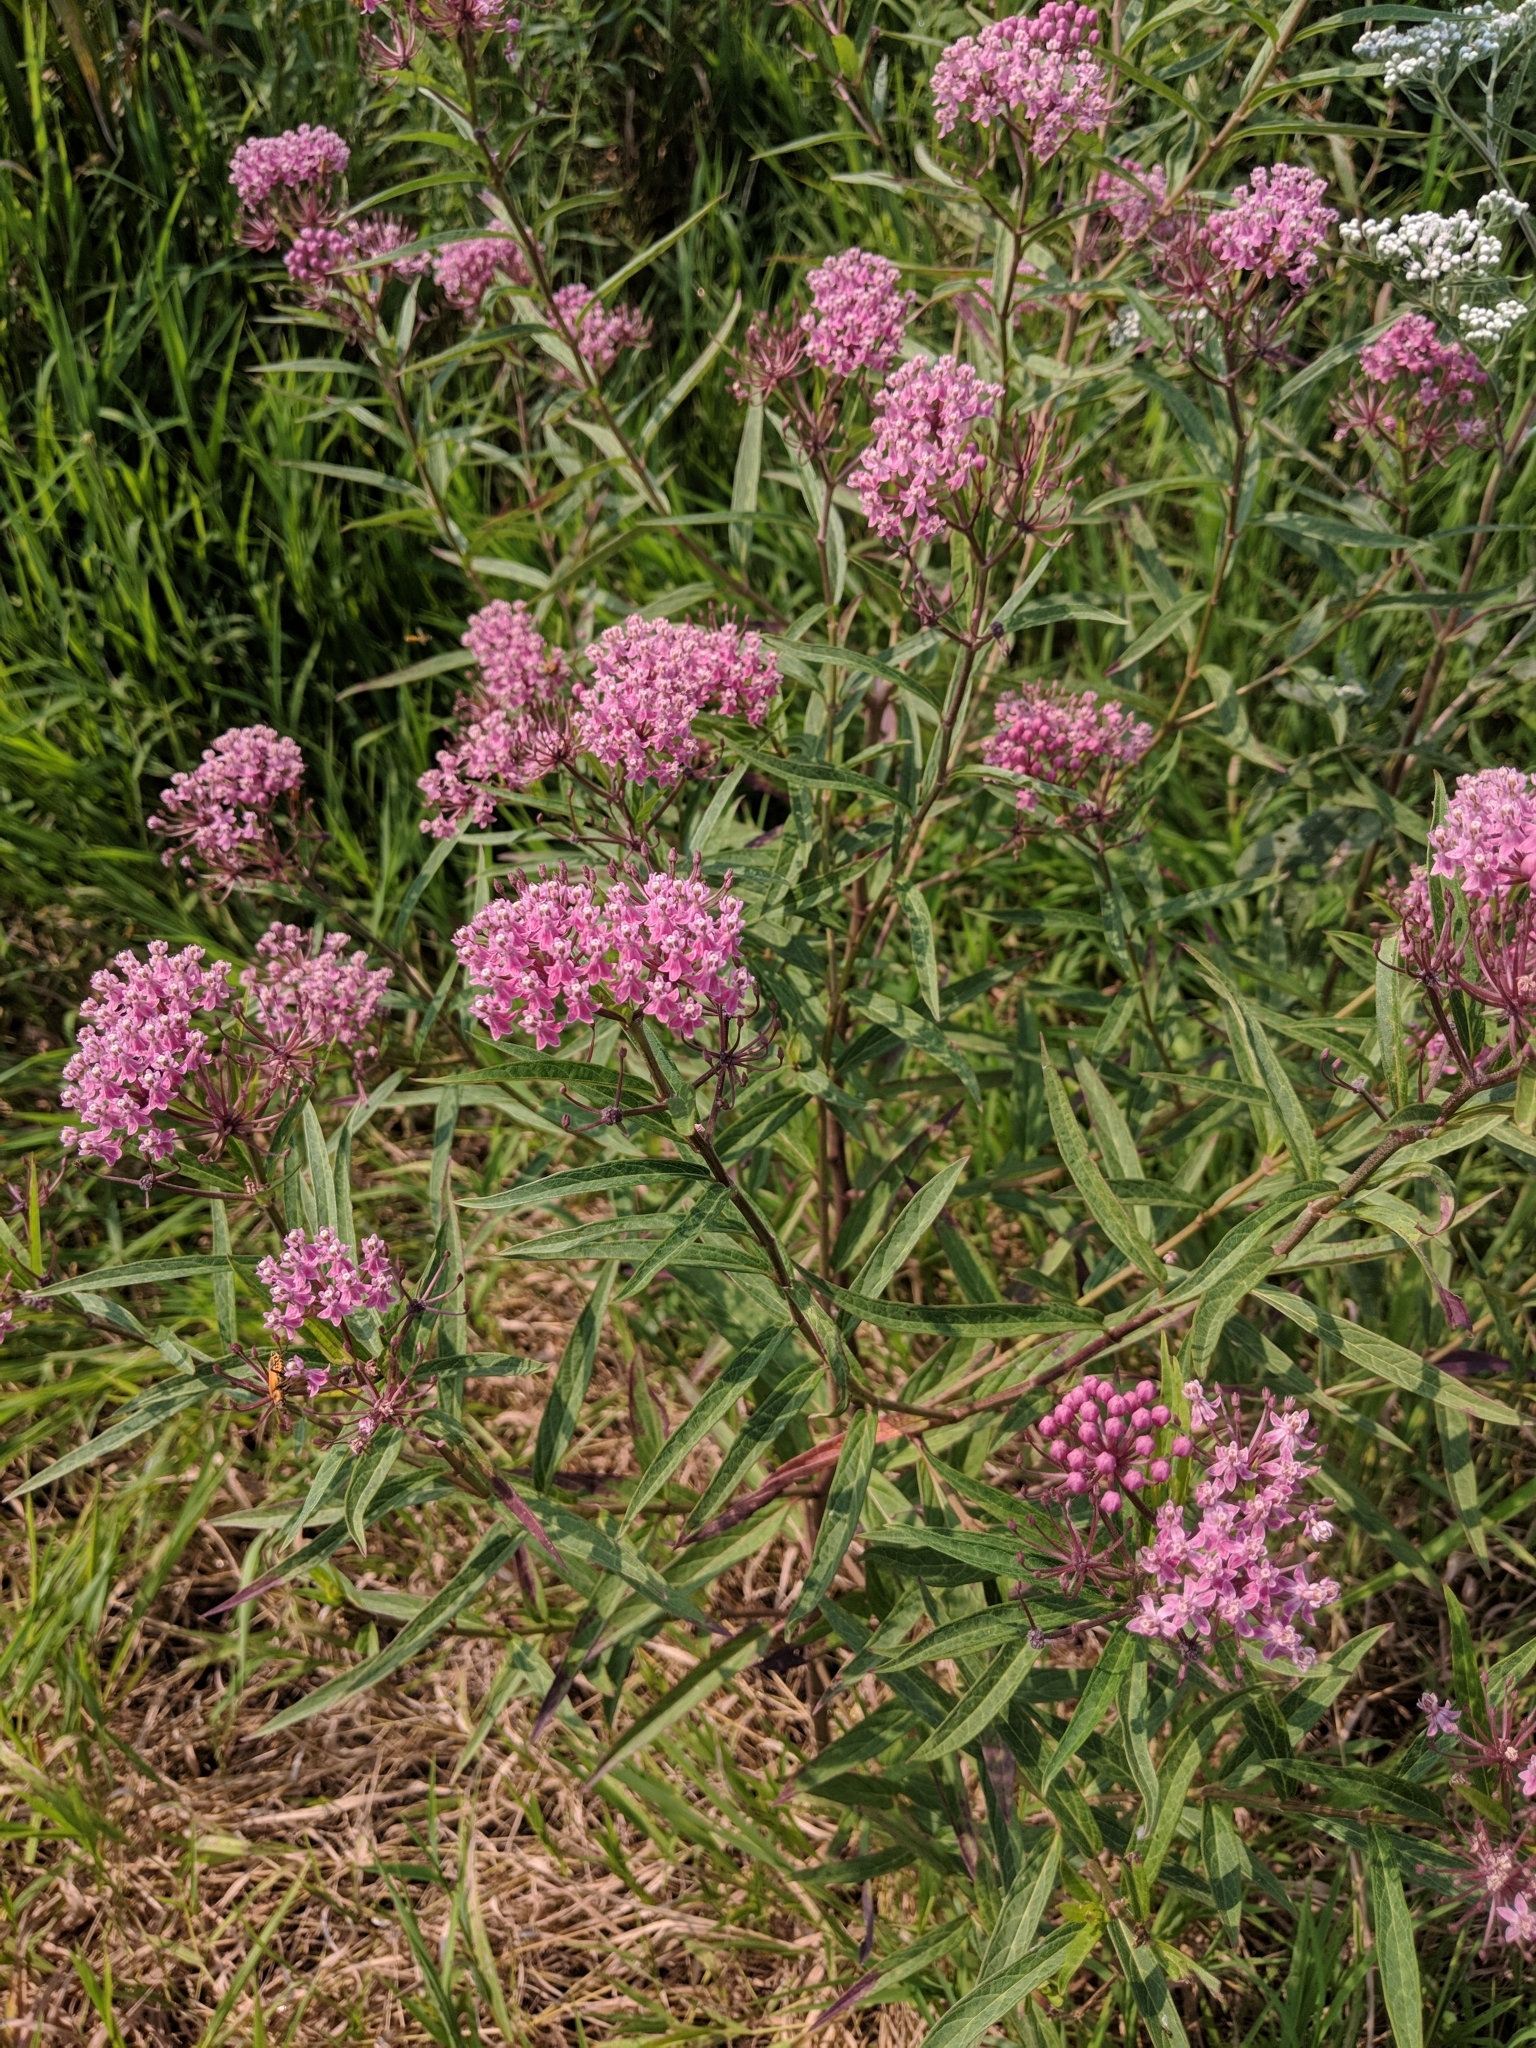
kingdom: Plantae
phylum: Tracheophyta
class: Magnoliopsida
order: Gentianales
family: Apocynaceae
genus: Asclepias
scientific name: Asclepias incarnata
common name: Swamp milkweed
